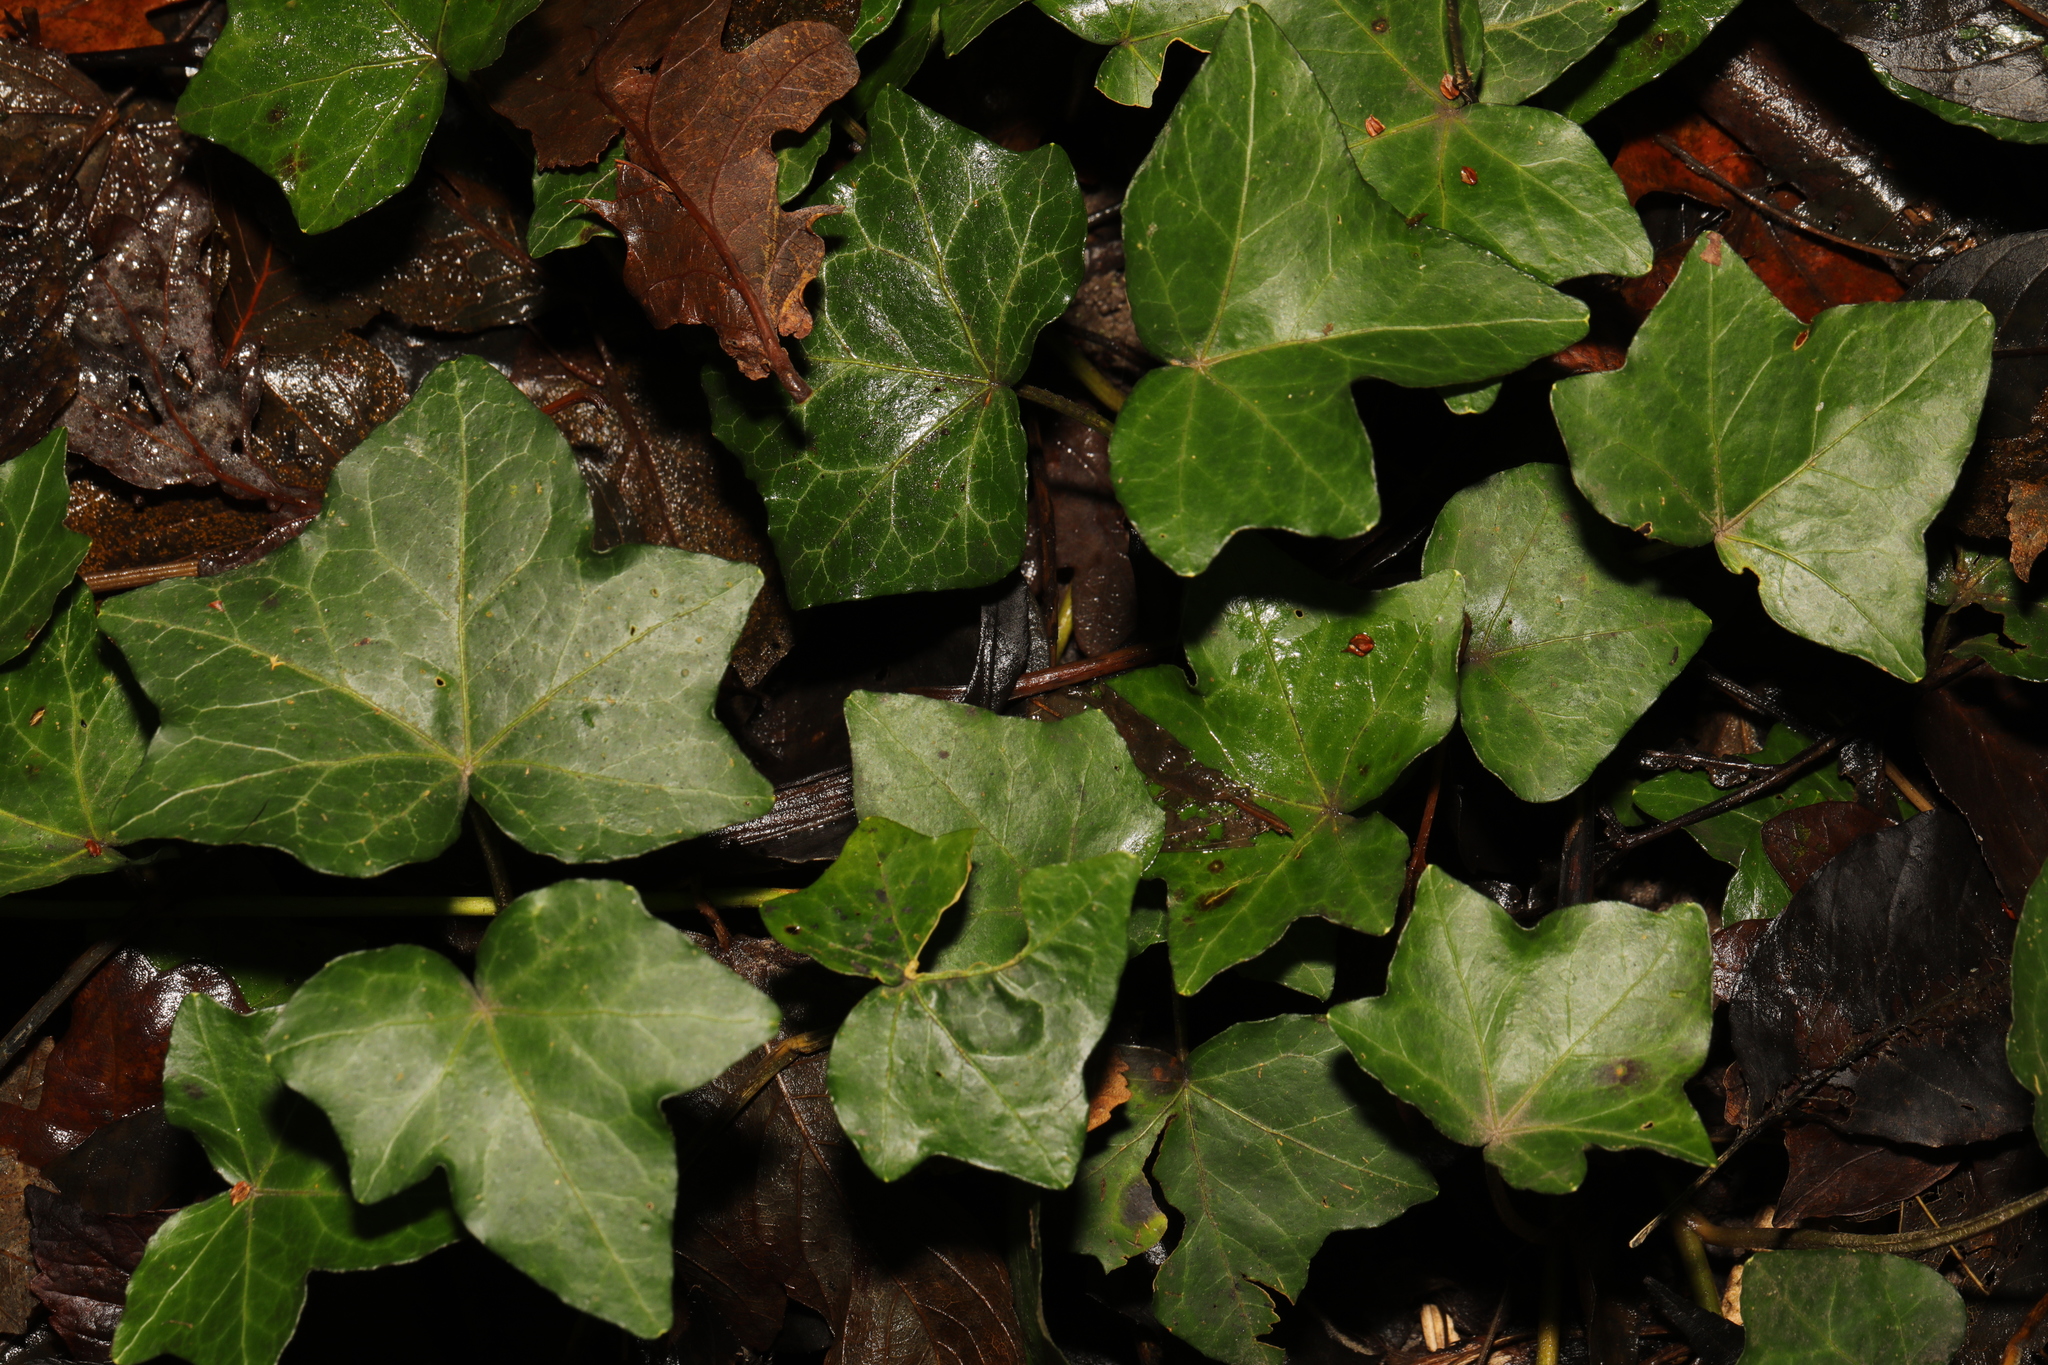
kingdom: Plantae
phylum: Tracheophyta
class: Magnoliopsida
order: Apiales
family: Araliaceae
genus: Hedera
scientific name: Hedera hibernica
